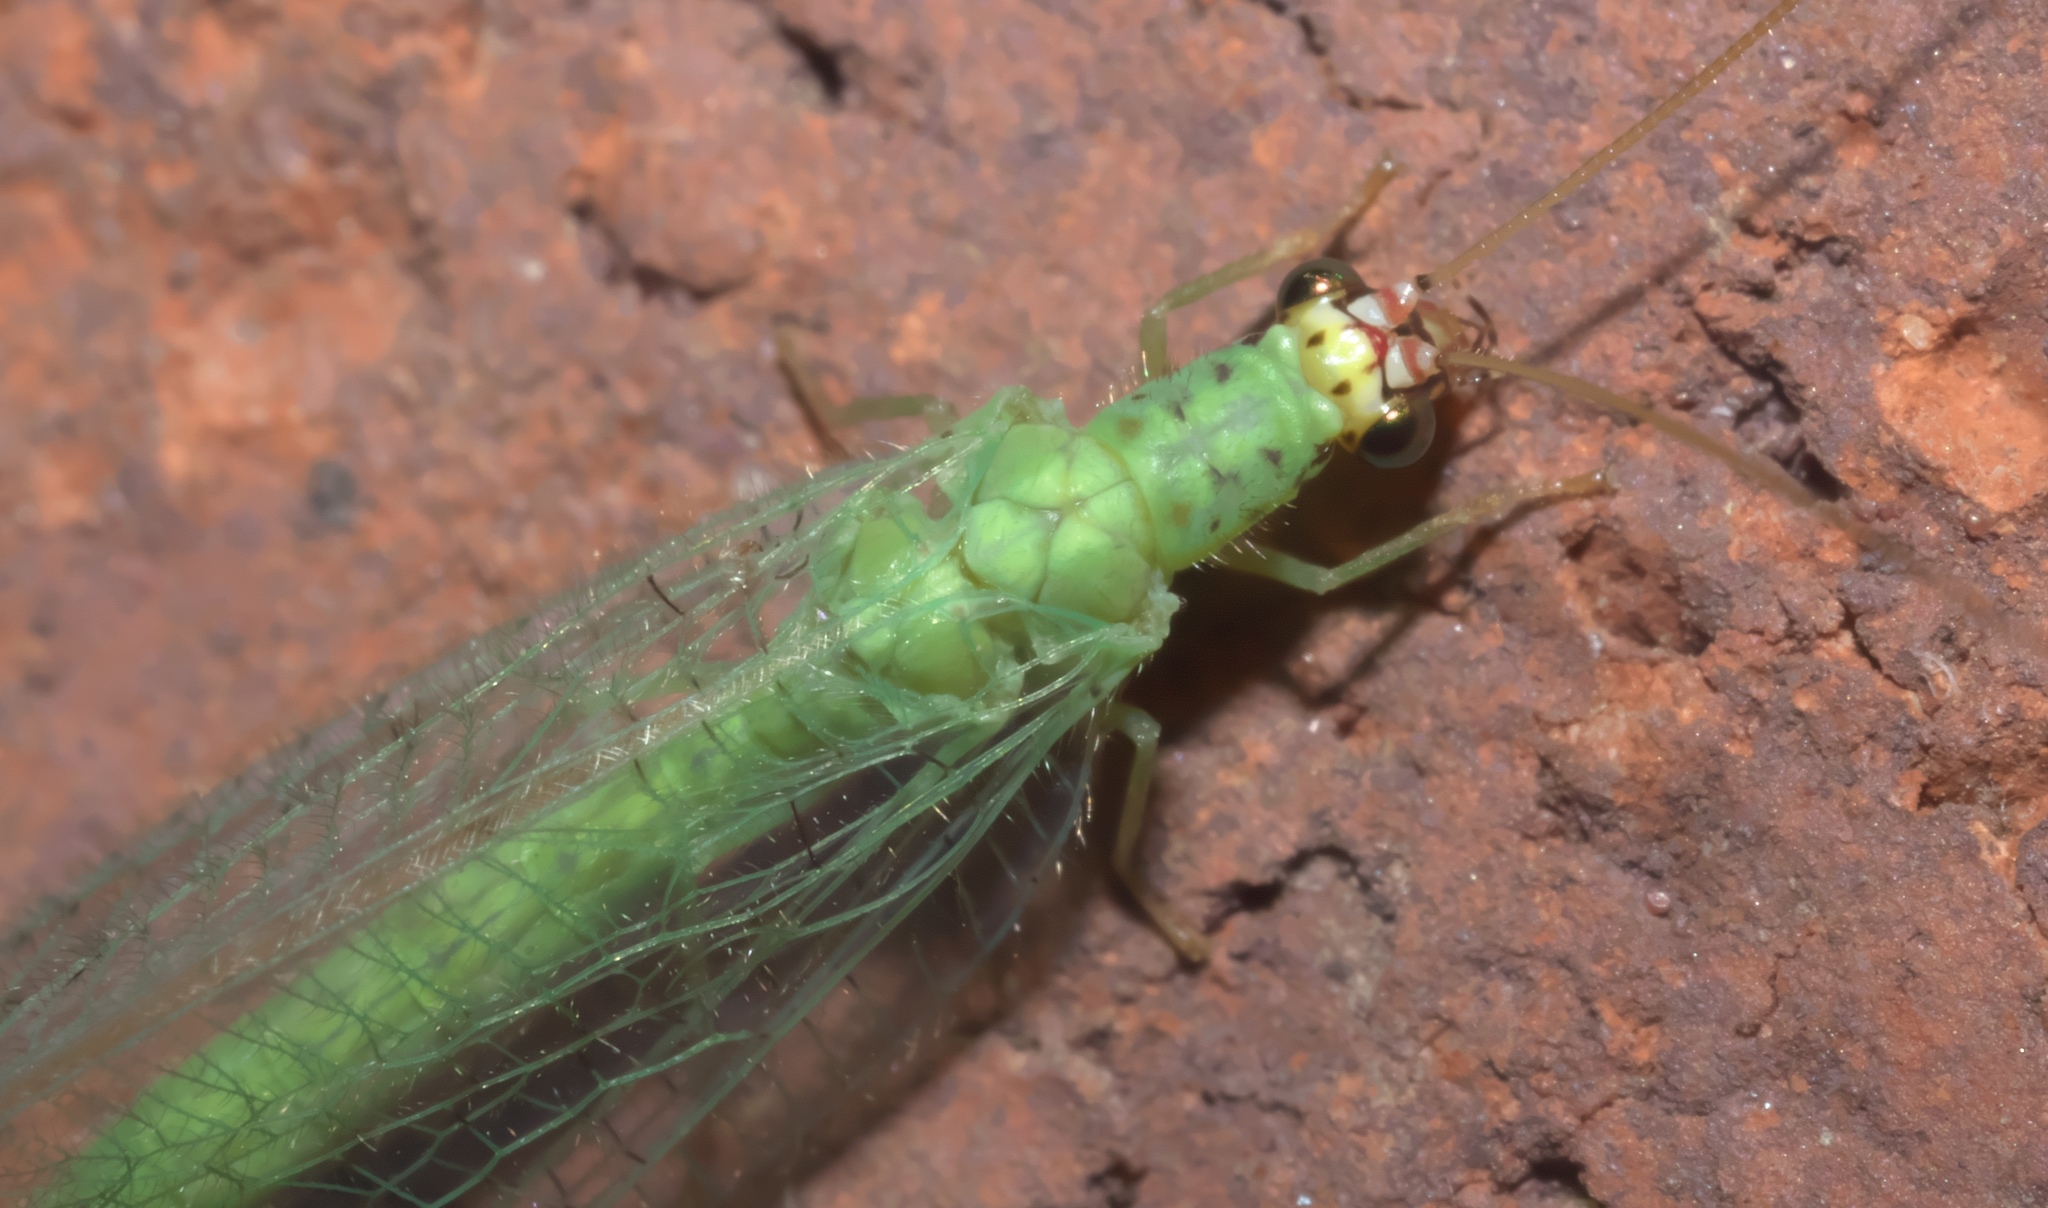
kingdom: Animalia
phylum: Arthropoda
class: Insecta
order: Neuroptera
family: Chrysopidae
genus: Chrysopa
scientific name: Chrysopa oculata
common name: Golden-eyed lacewing
